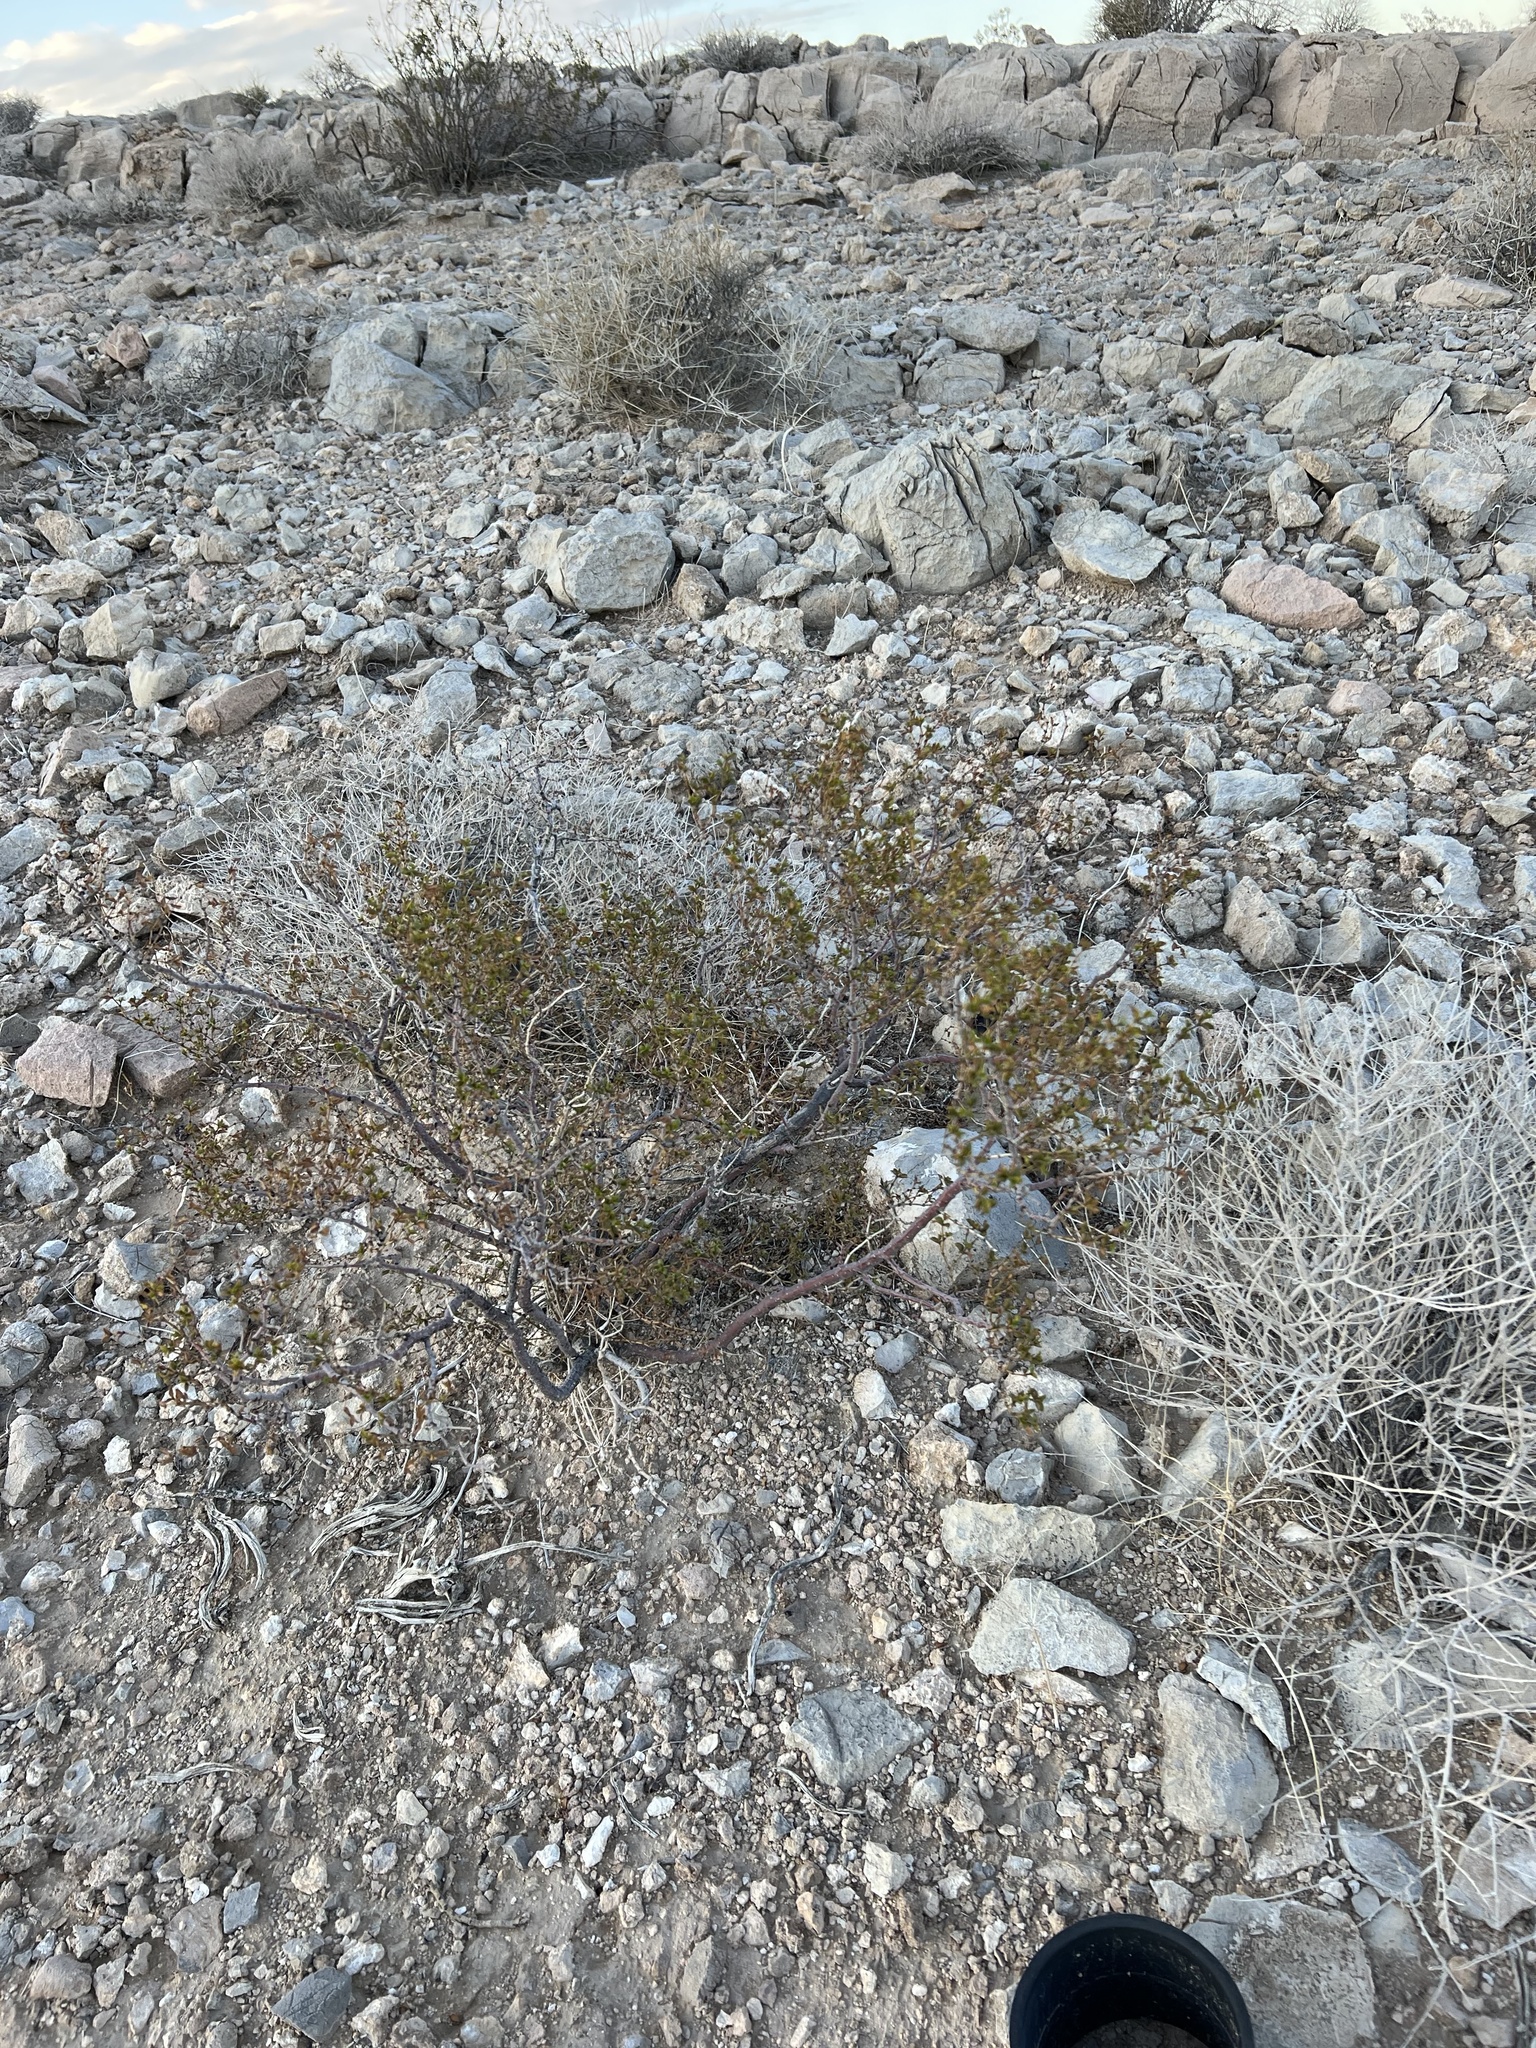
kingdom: Plantae
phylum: Tracheophyta
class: Magnoliopsida
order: Zygophyllales
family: Zygophyllaceae
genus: Larrea
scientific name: Larrea tridentata
